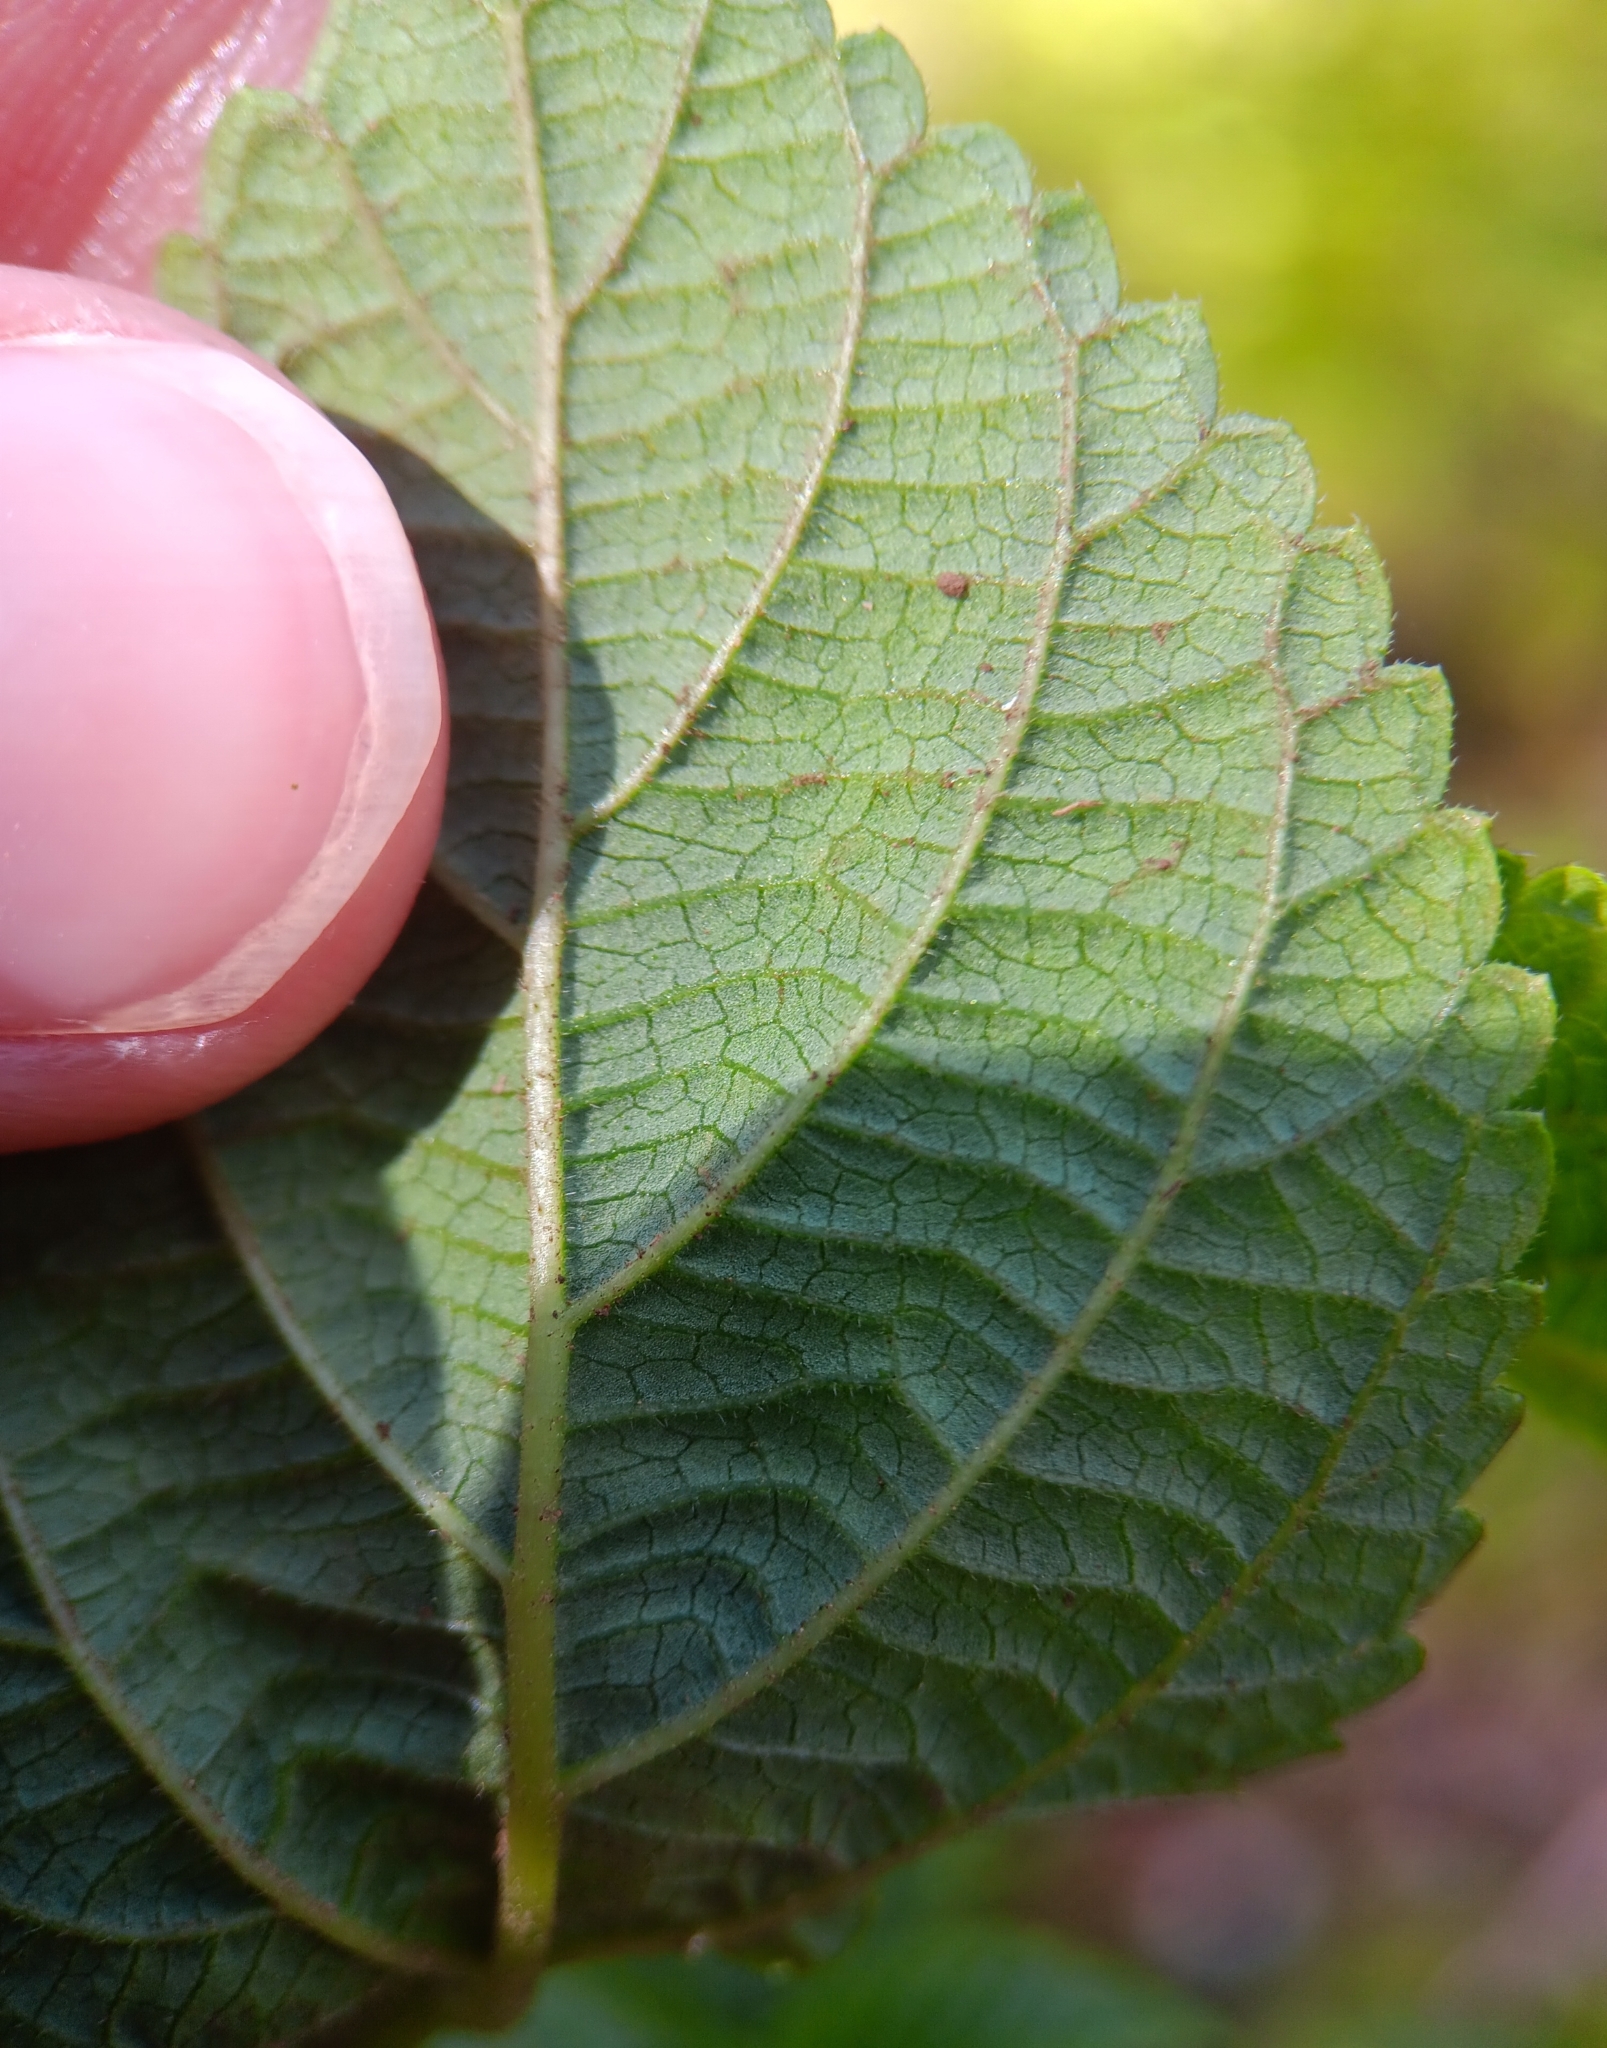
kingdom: Plantae
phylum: Tracheophyta
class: Magnoliopsida
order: Lamiales
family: Verbenaceae
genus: Lantana
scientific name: Lantana camara
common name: Lantana
